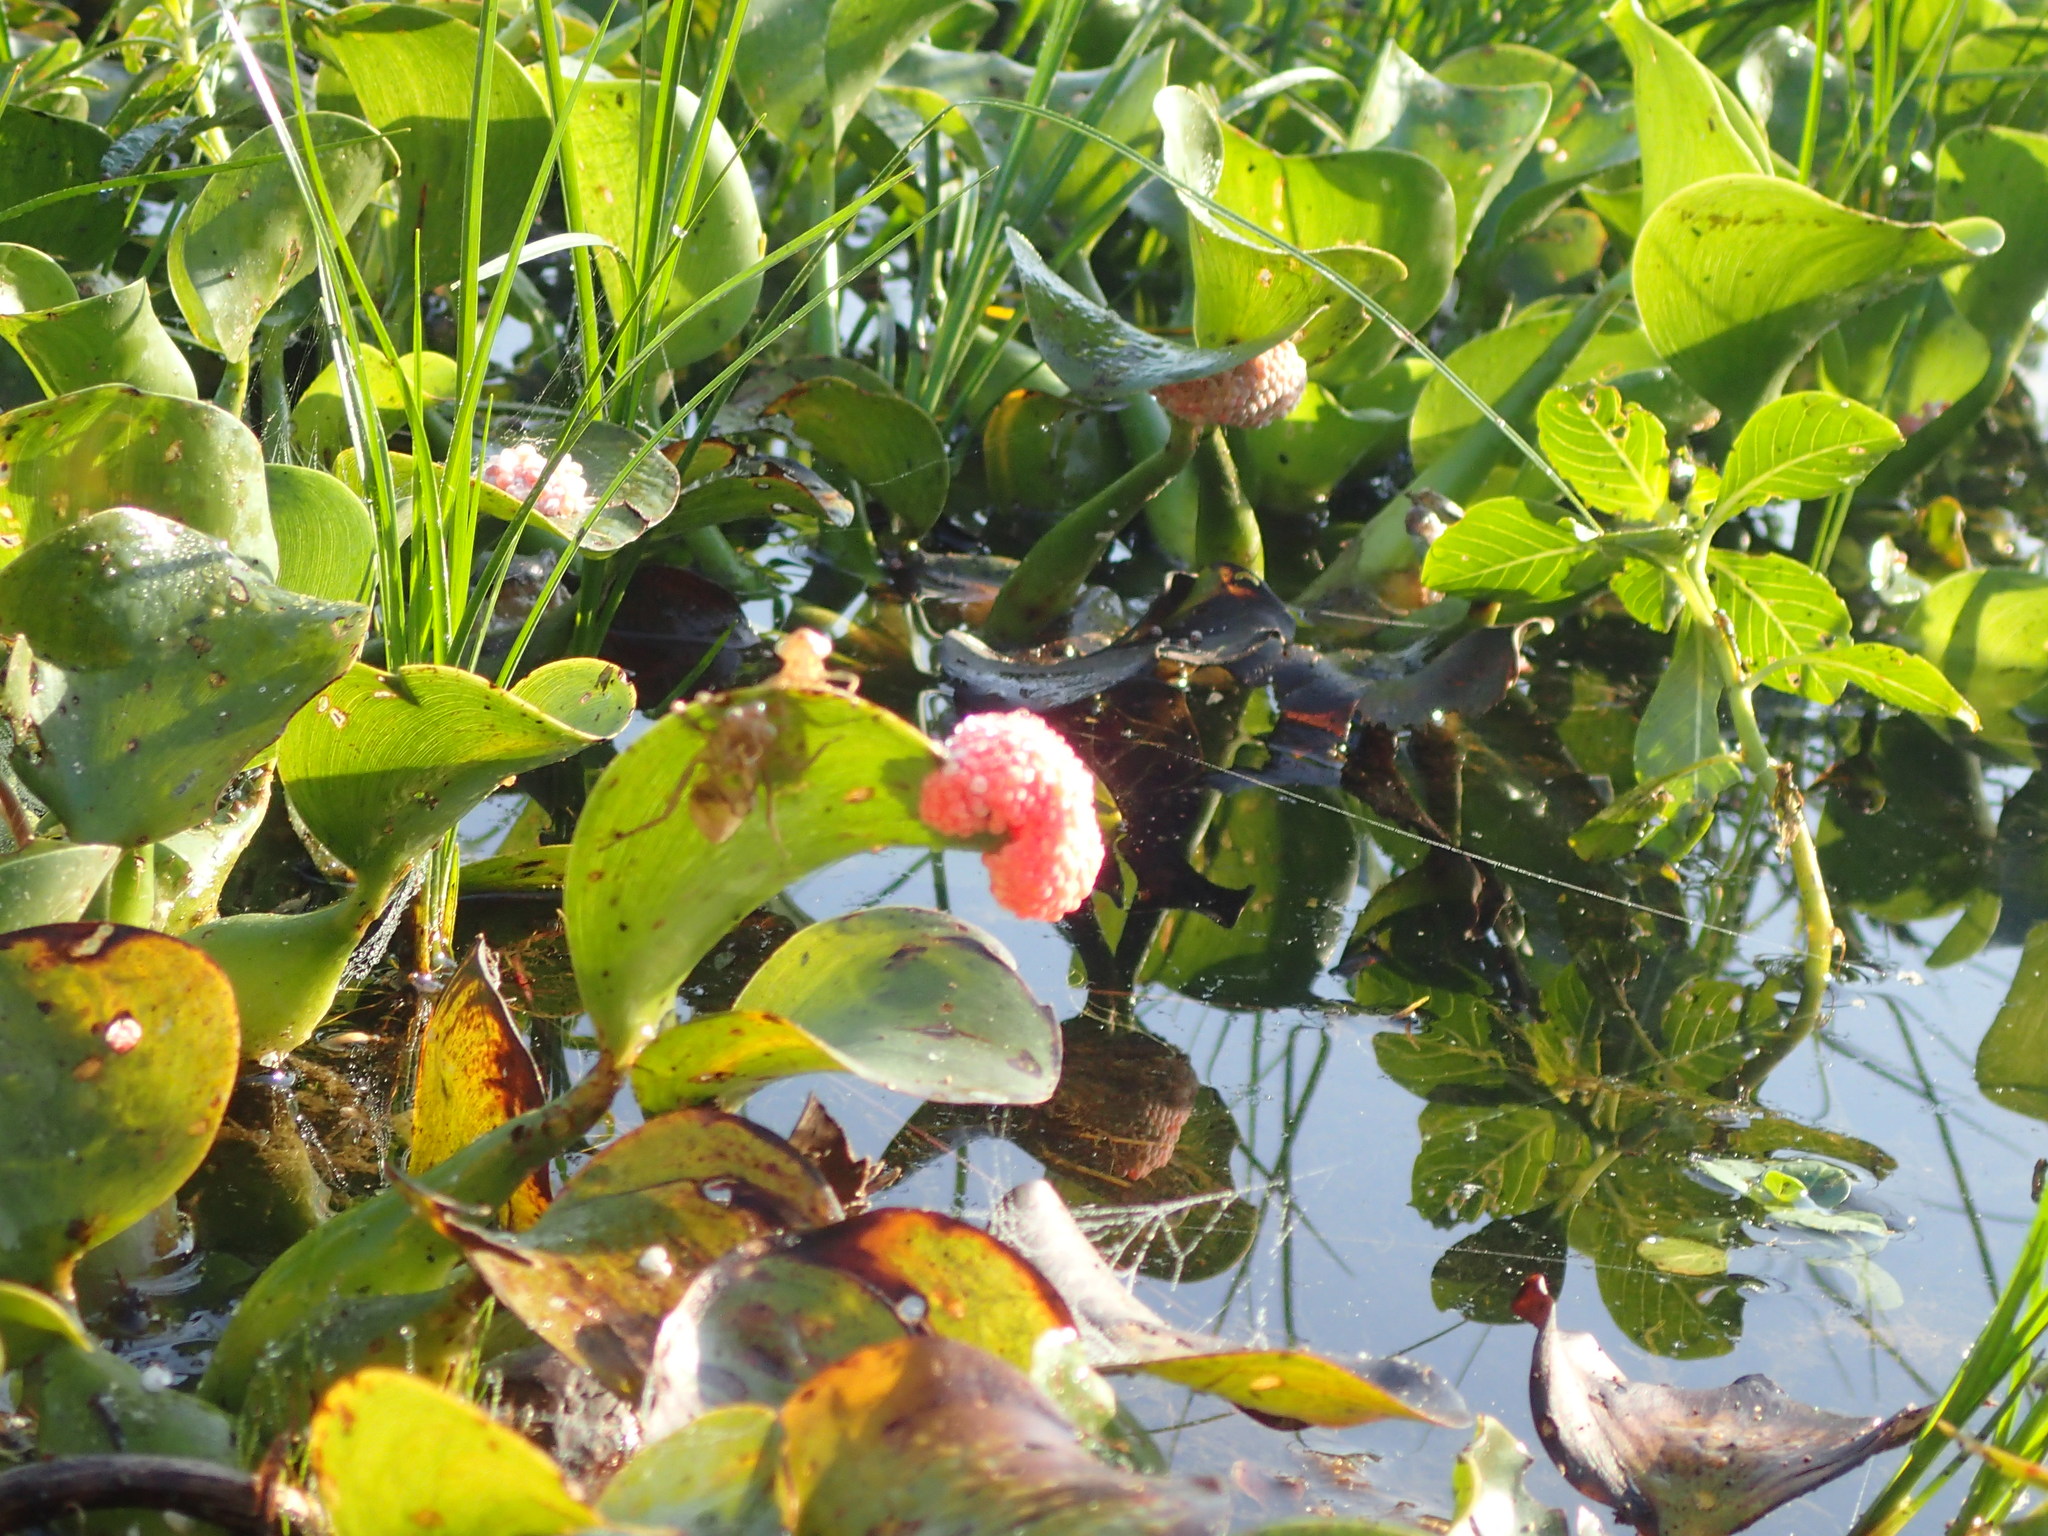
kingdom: Animalia
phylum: Mollusca
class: Gastropoda
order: Architaenioglossa
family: Ampullariidae
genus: Pomacea
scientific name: Pomacea maculata
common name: Giant applesnail
